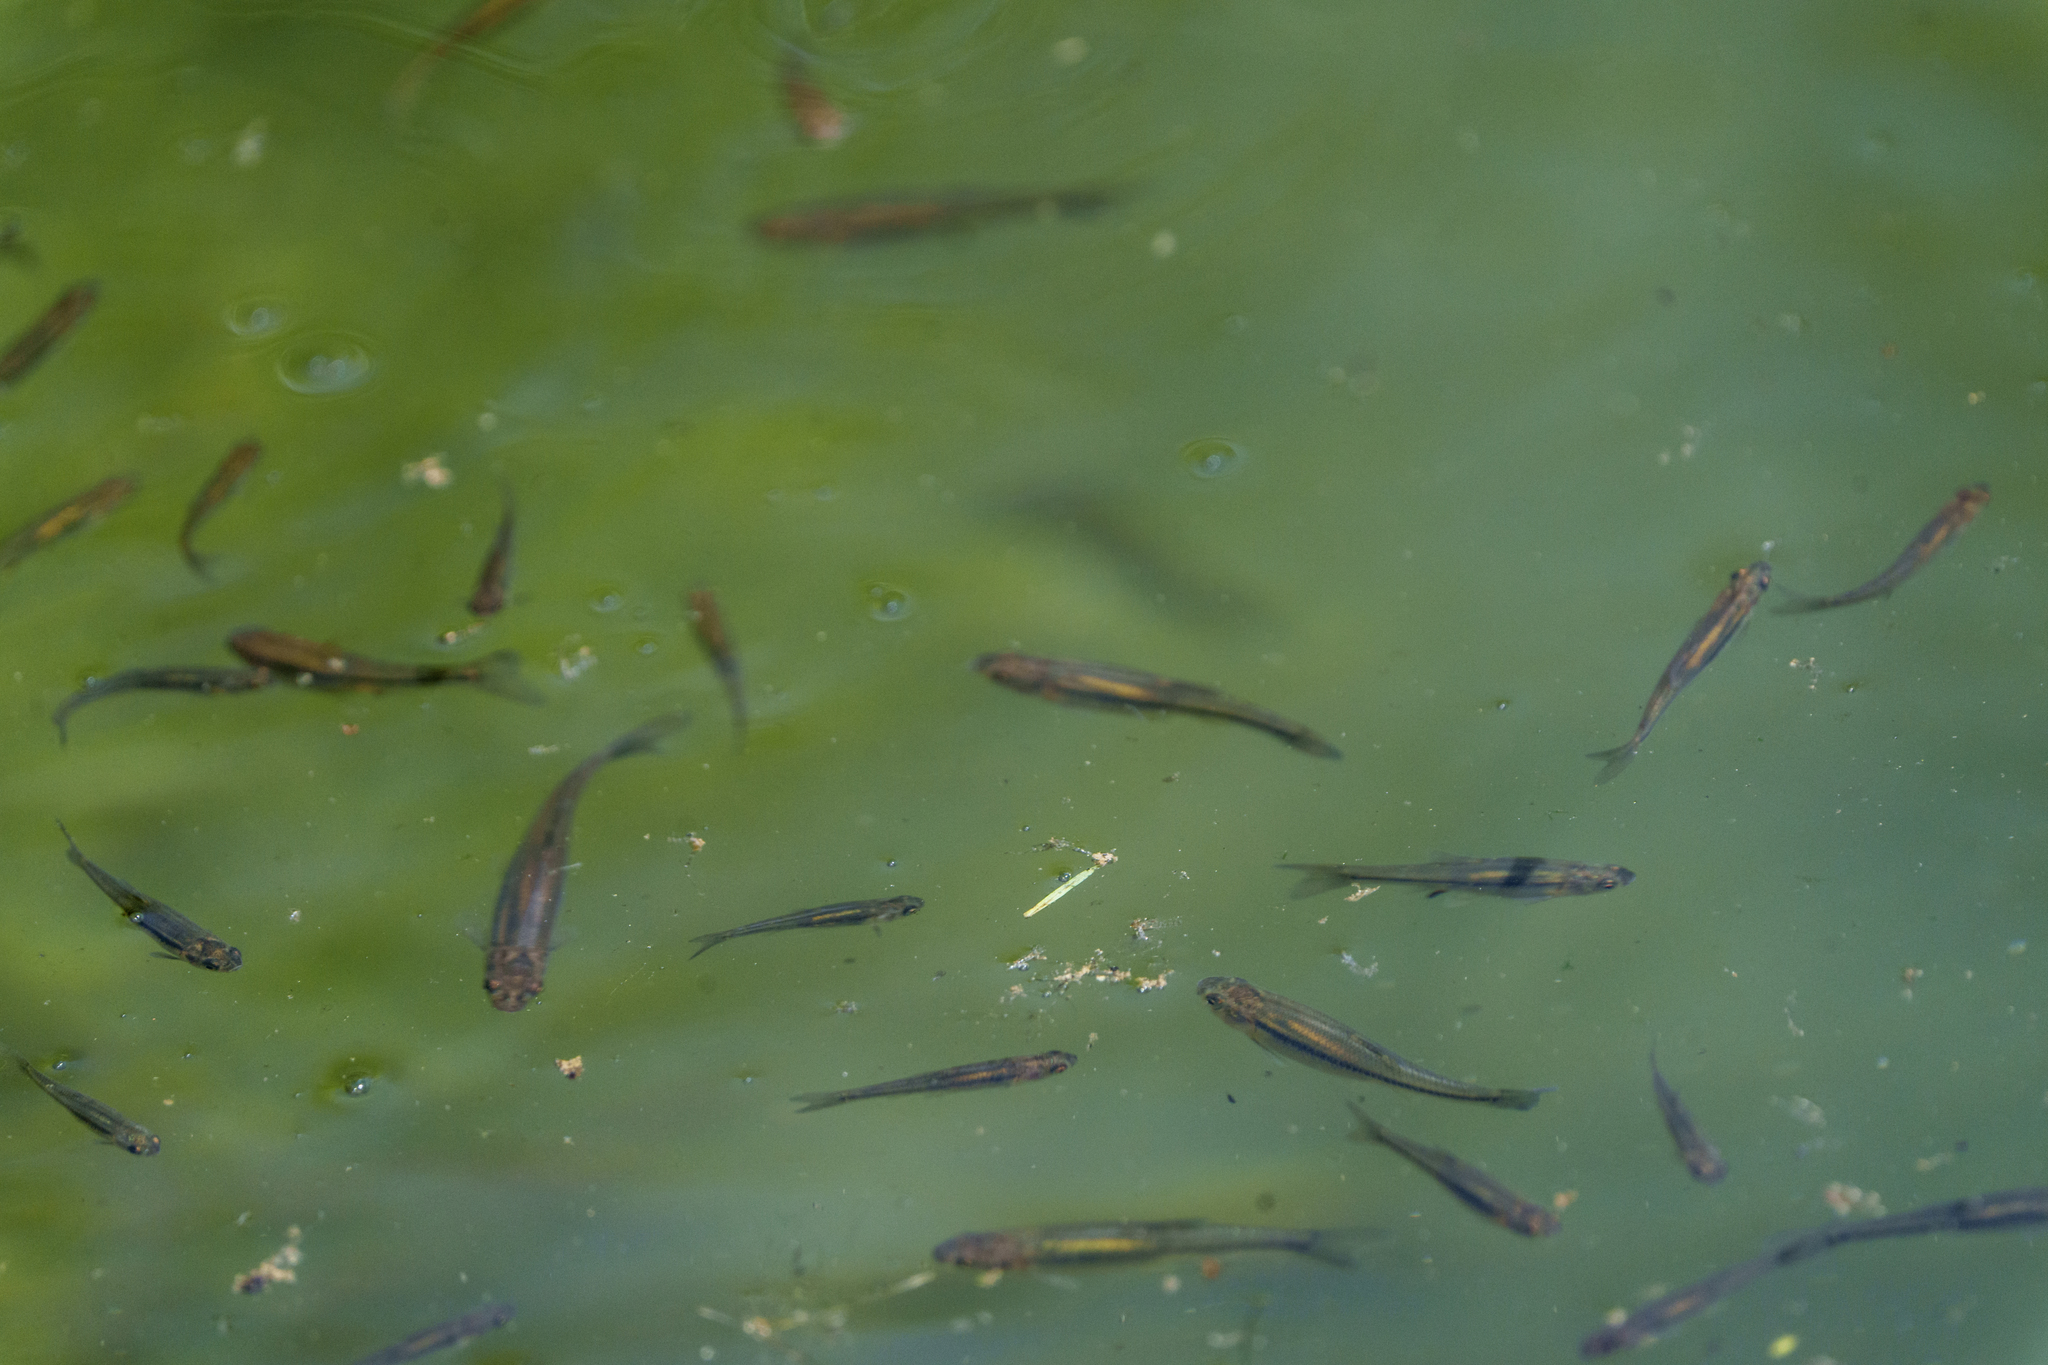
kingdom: Animalia
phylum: Chordata
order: Cypriniformes
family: Cyprinidae
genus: Richardsonius
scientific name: Richardsonius balteatus
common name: Redside shiner
